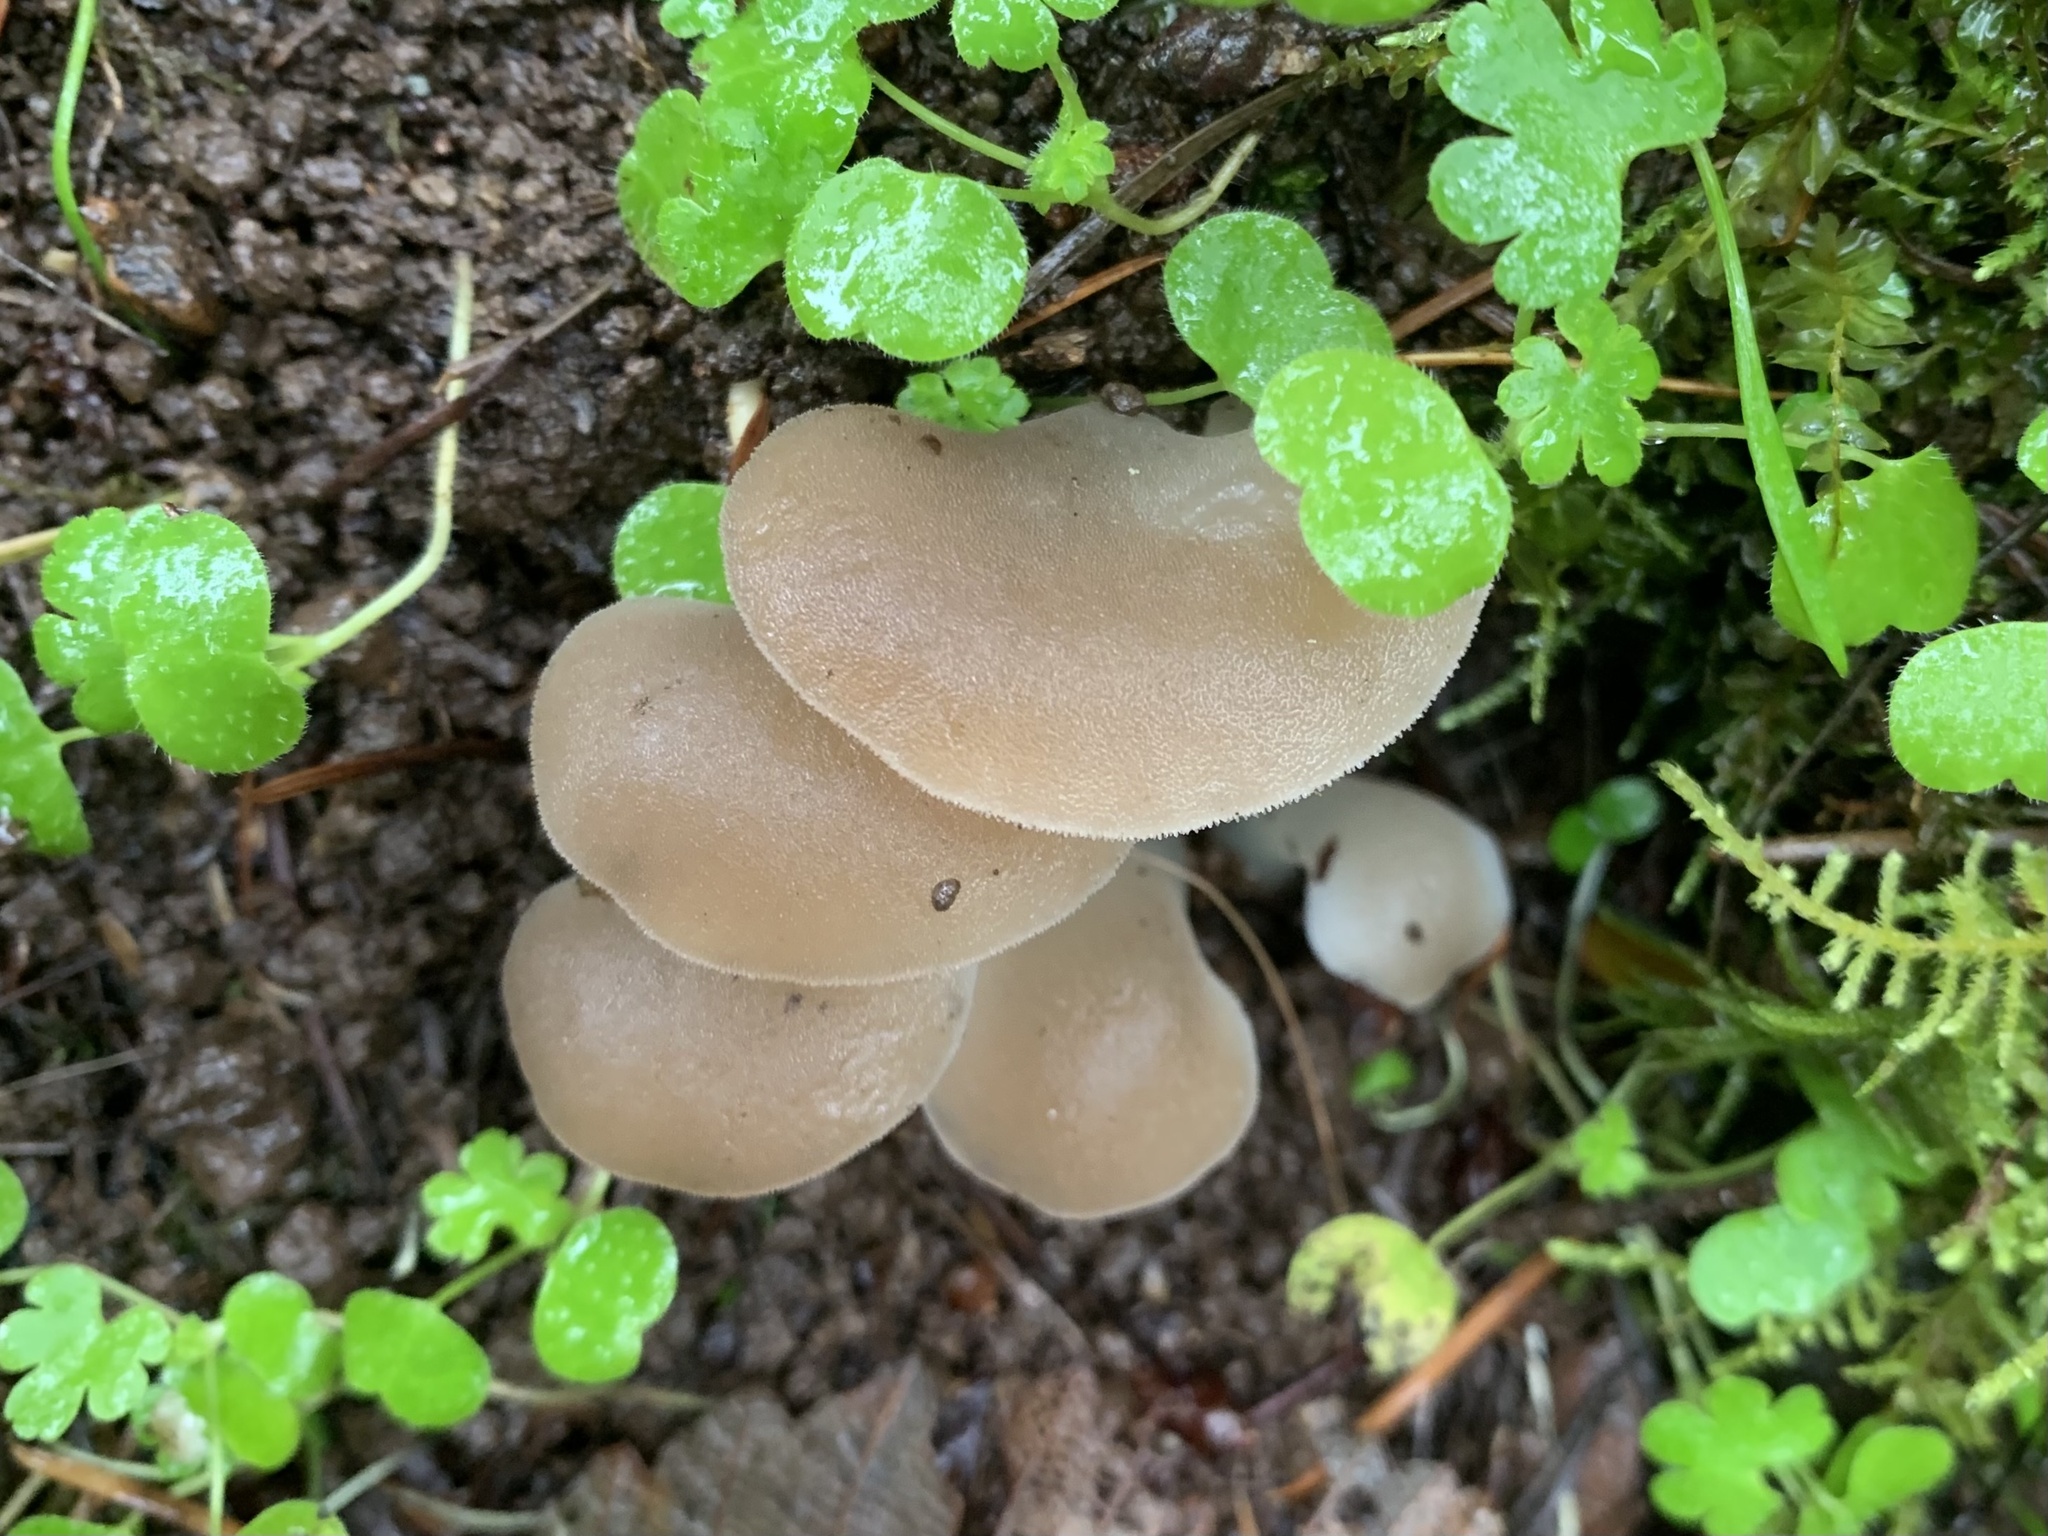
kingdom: Fungi
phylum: Basidiomycota
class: Agaricomycetes
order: Auriculariales
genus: Pseudohydnum
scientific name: Pseudohydnum gelatinosum
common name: Jelly tongue
